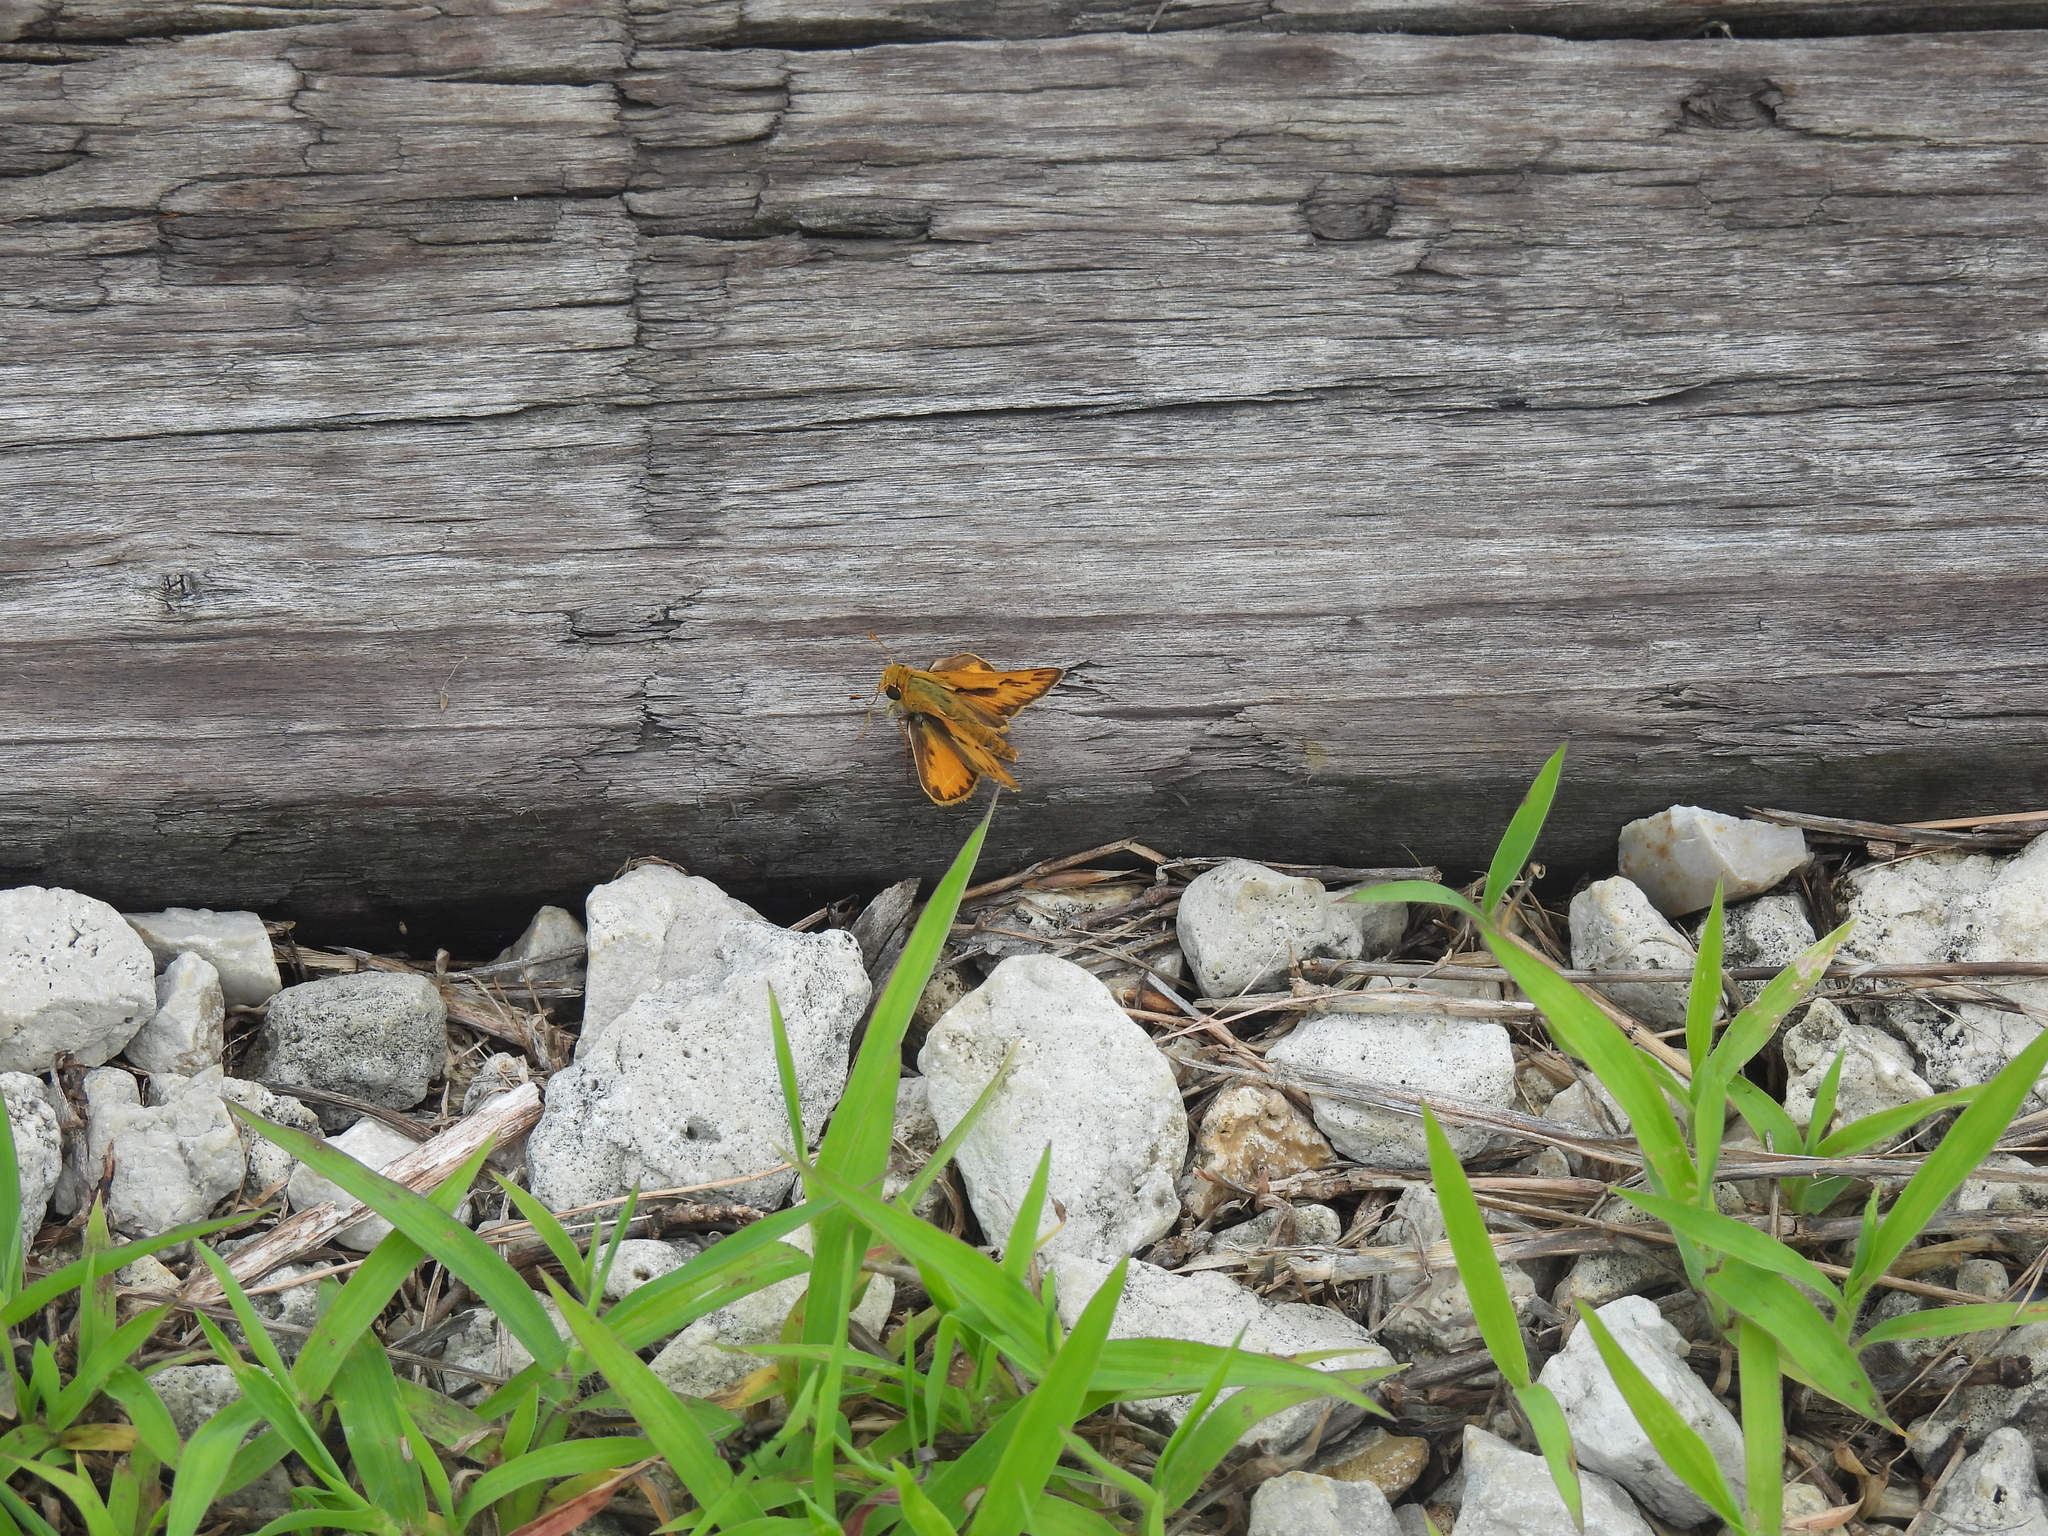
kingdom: Animalia
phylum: Arthropoda
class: Insecta
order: Lepidoptera
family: Hesperiidae
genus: Hylephila
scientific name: Hylephila phyleus
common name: Fiery skipper
